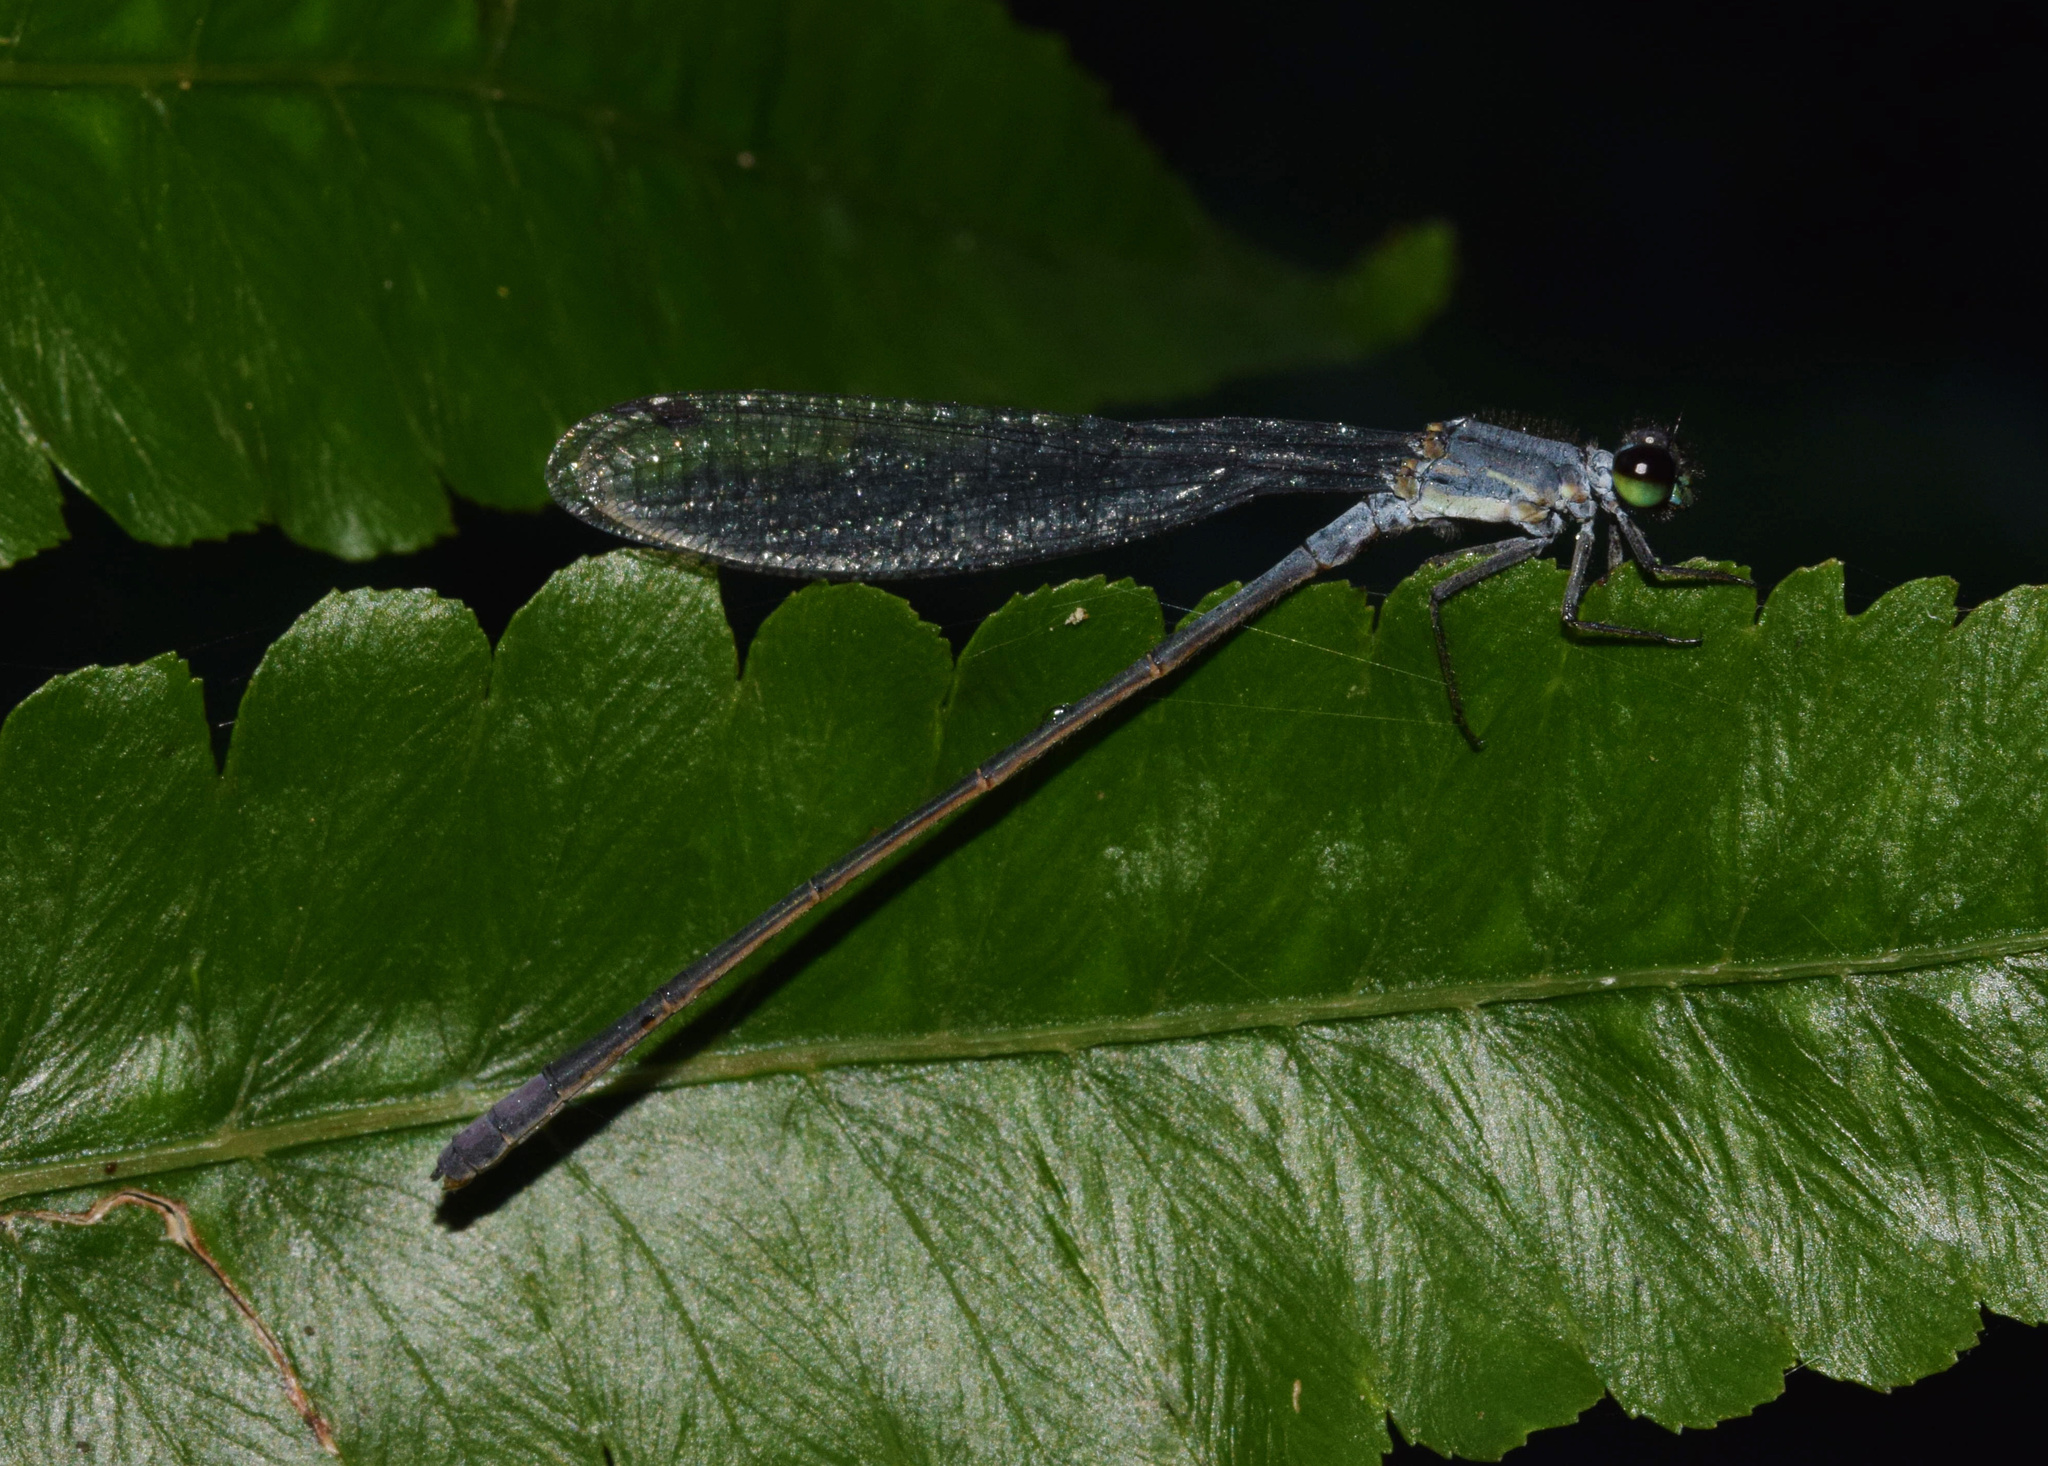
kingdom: Animalia
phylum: Arthropoda
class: Insecta
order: Odonata
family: Coenagrionidae
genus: Pseudagrion
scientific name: Pseudagrion salisburyense
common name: Slate sprite
